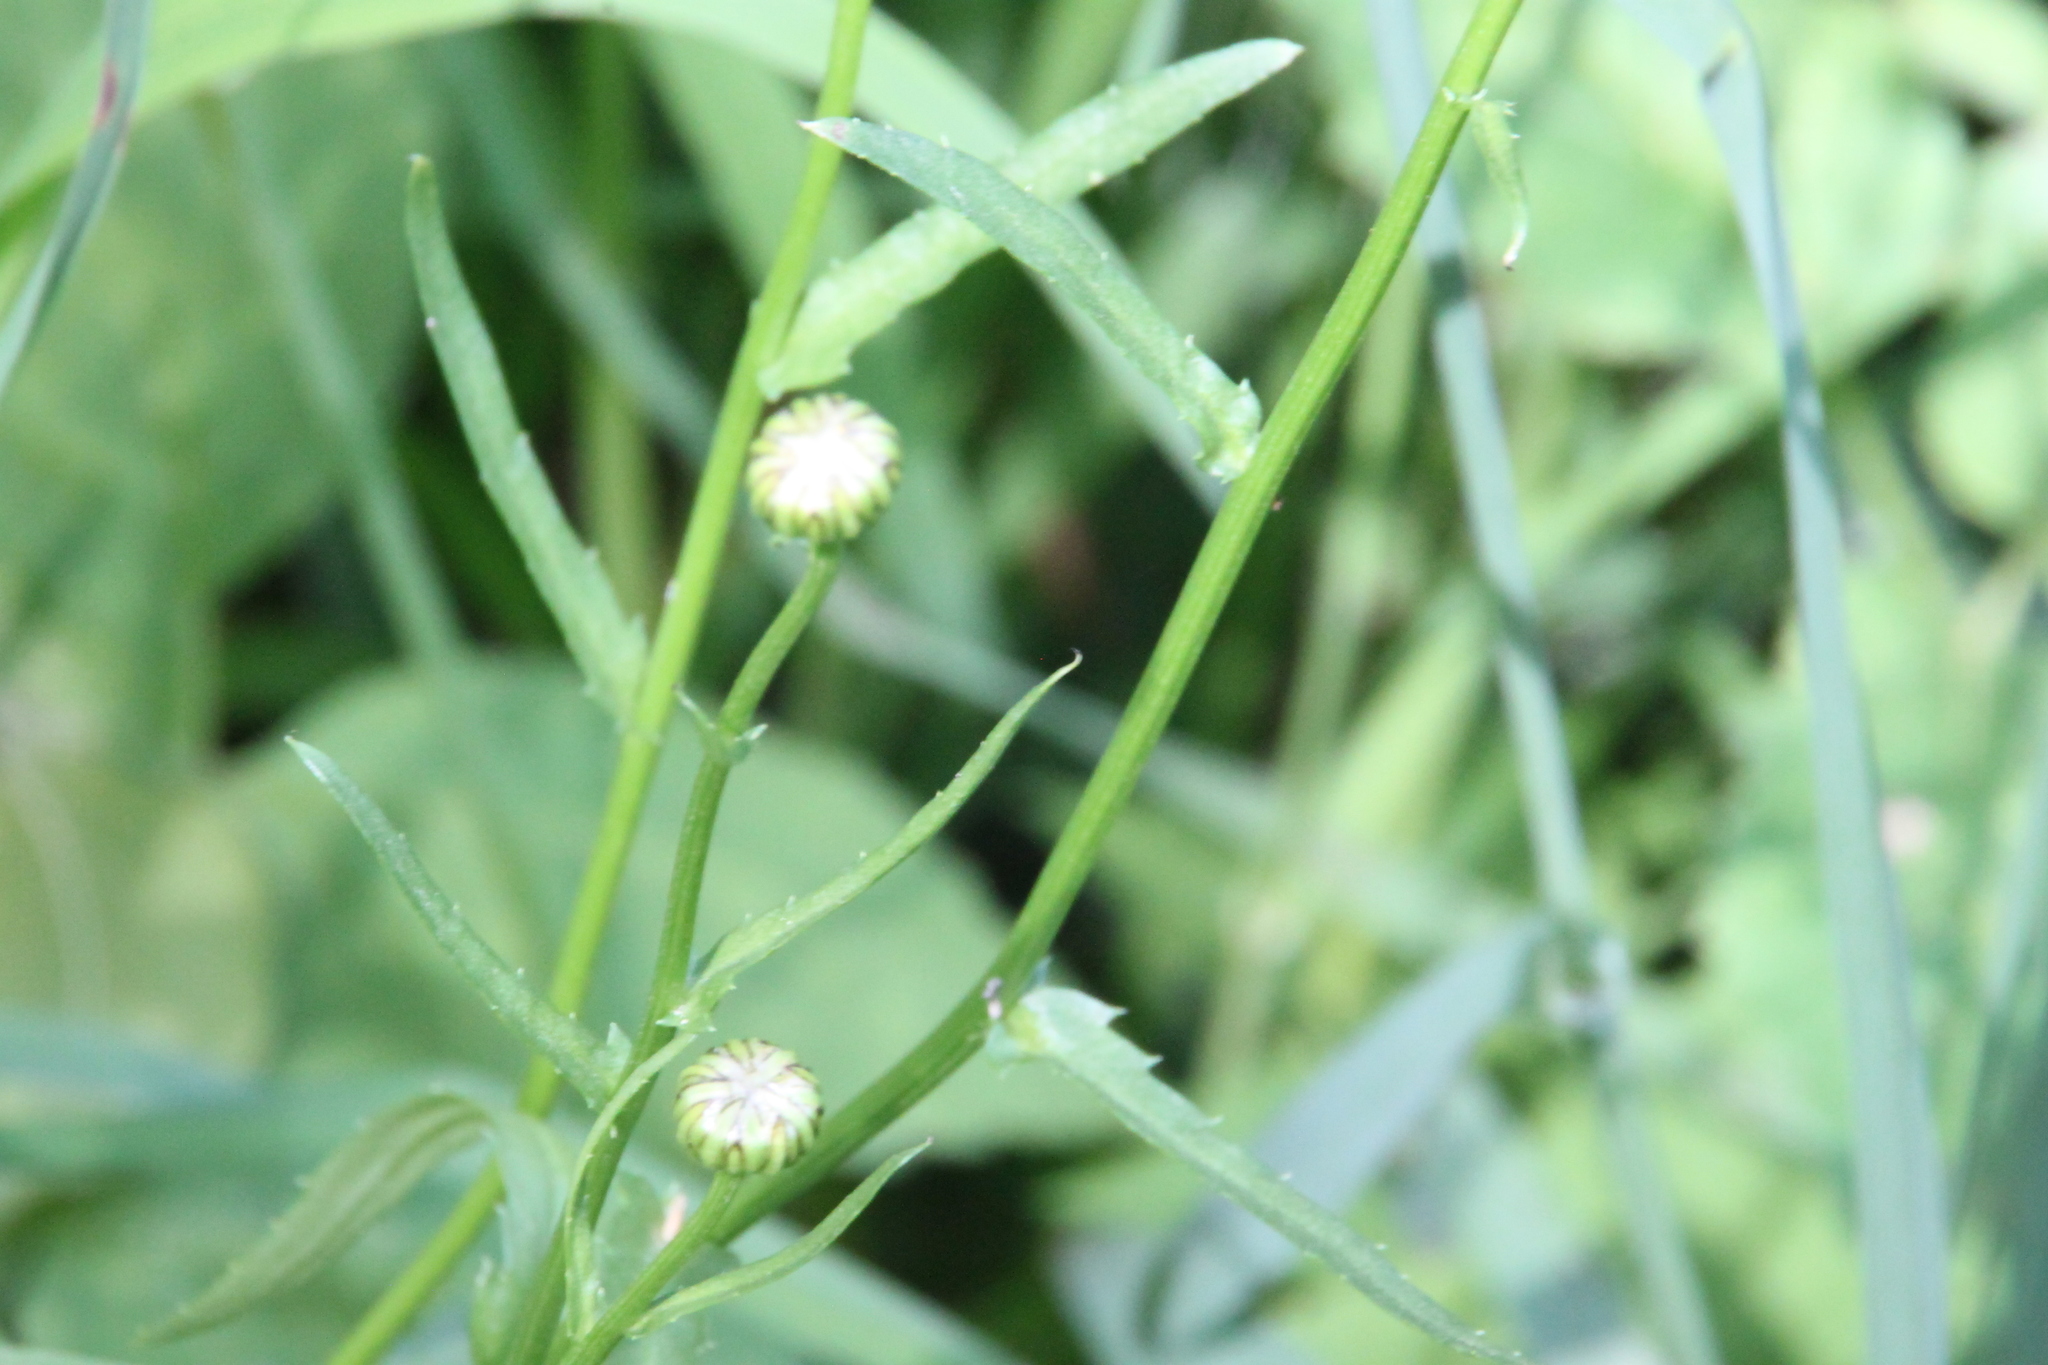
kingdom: Plantae
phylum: Tracheophyta
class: Magnoliopsida
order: Asterales
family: Asteraceae
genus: Leucanthemum
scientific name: Leucanthemum vulgare
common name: Oxeye daisy
